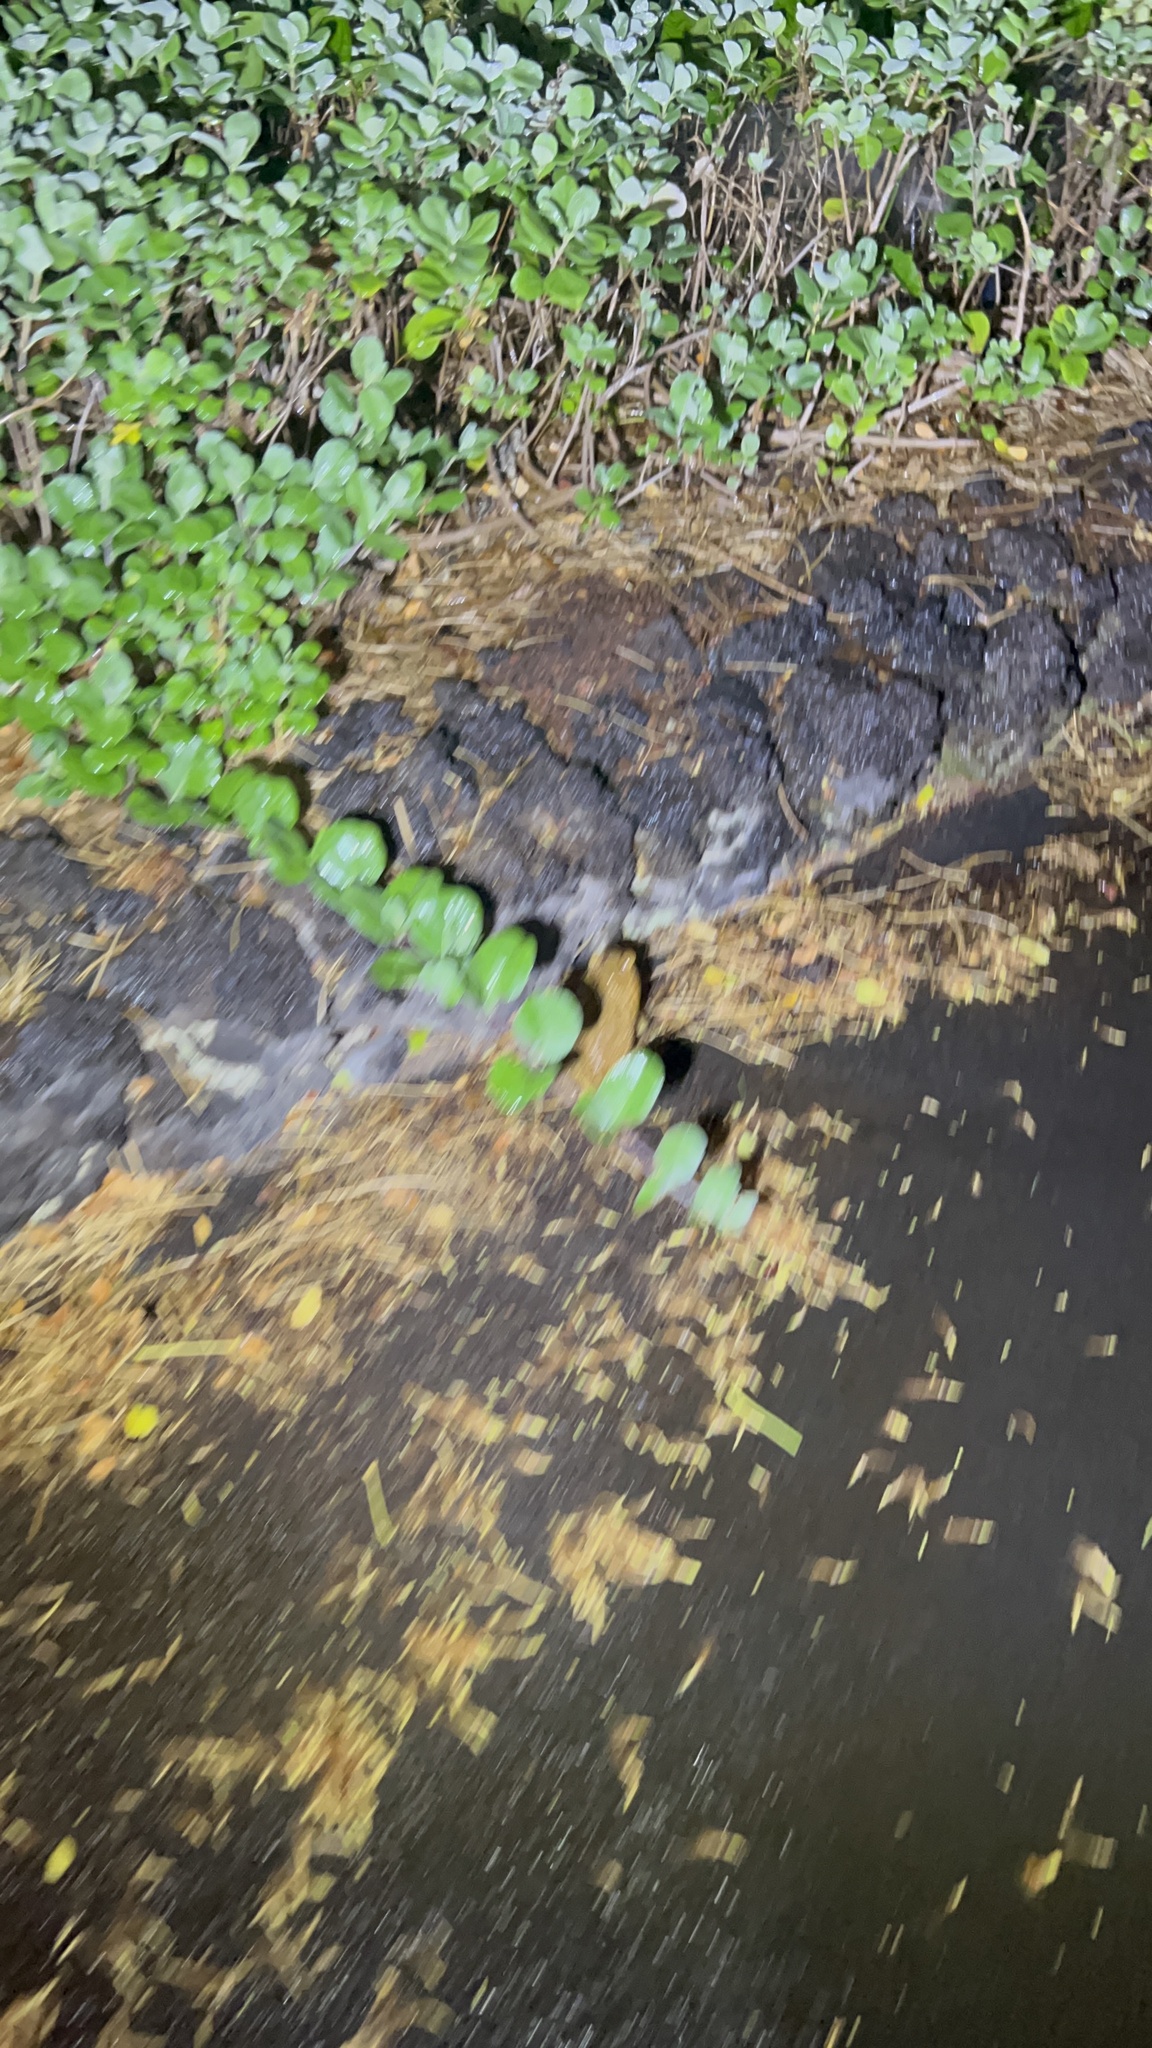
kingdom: Animalia
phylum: Chordata
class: Amphibia
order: Anura
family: Bufonidae
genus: Rhinella
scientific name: Rhinella marina
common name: Cane toad
